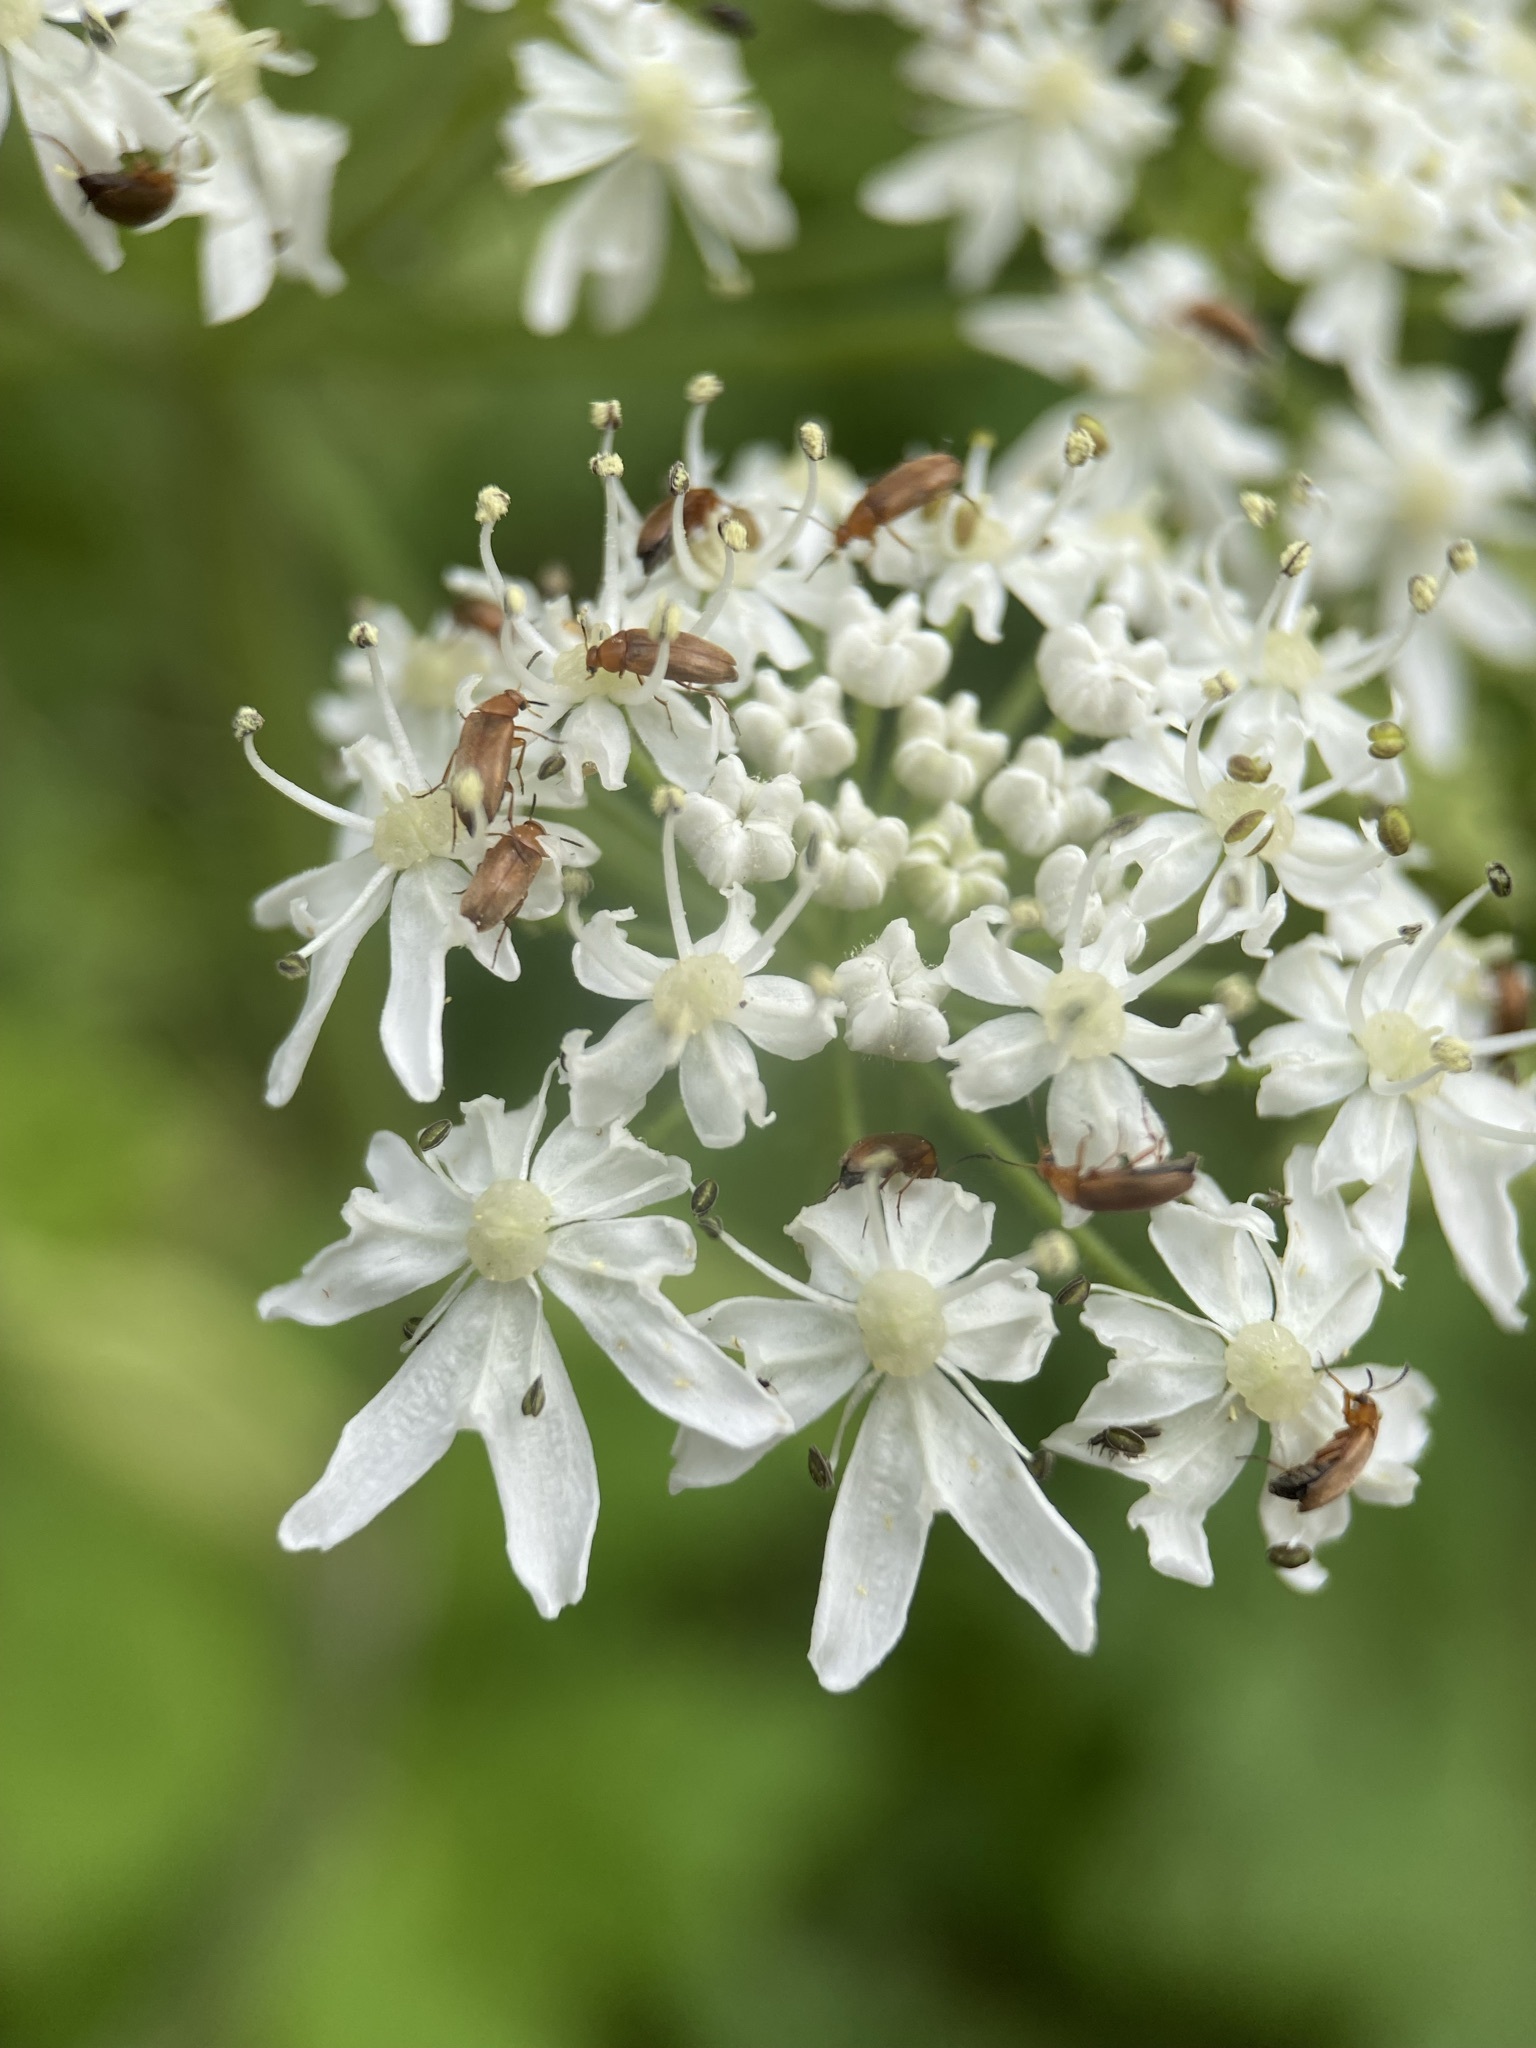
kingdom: Plantae
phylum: Tracheophyta
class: Magnoliopsida
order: Apiales
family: Apiaceae
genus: Heracleum
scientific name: Heracleum maximum
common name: American cow parsnip
